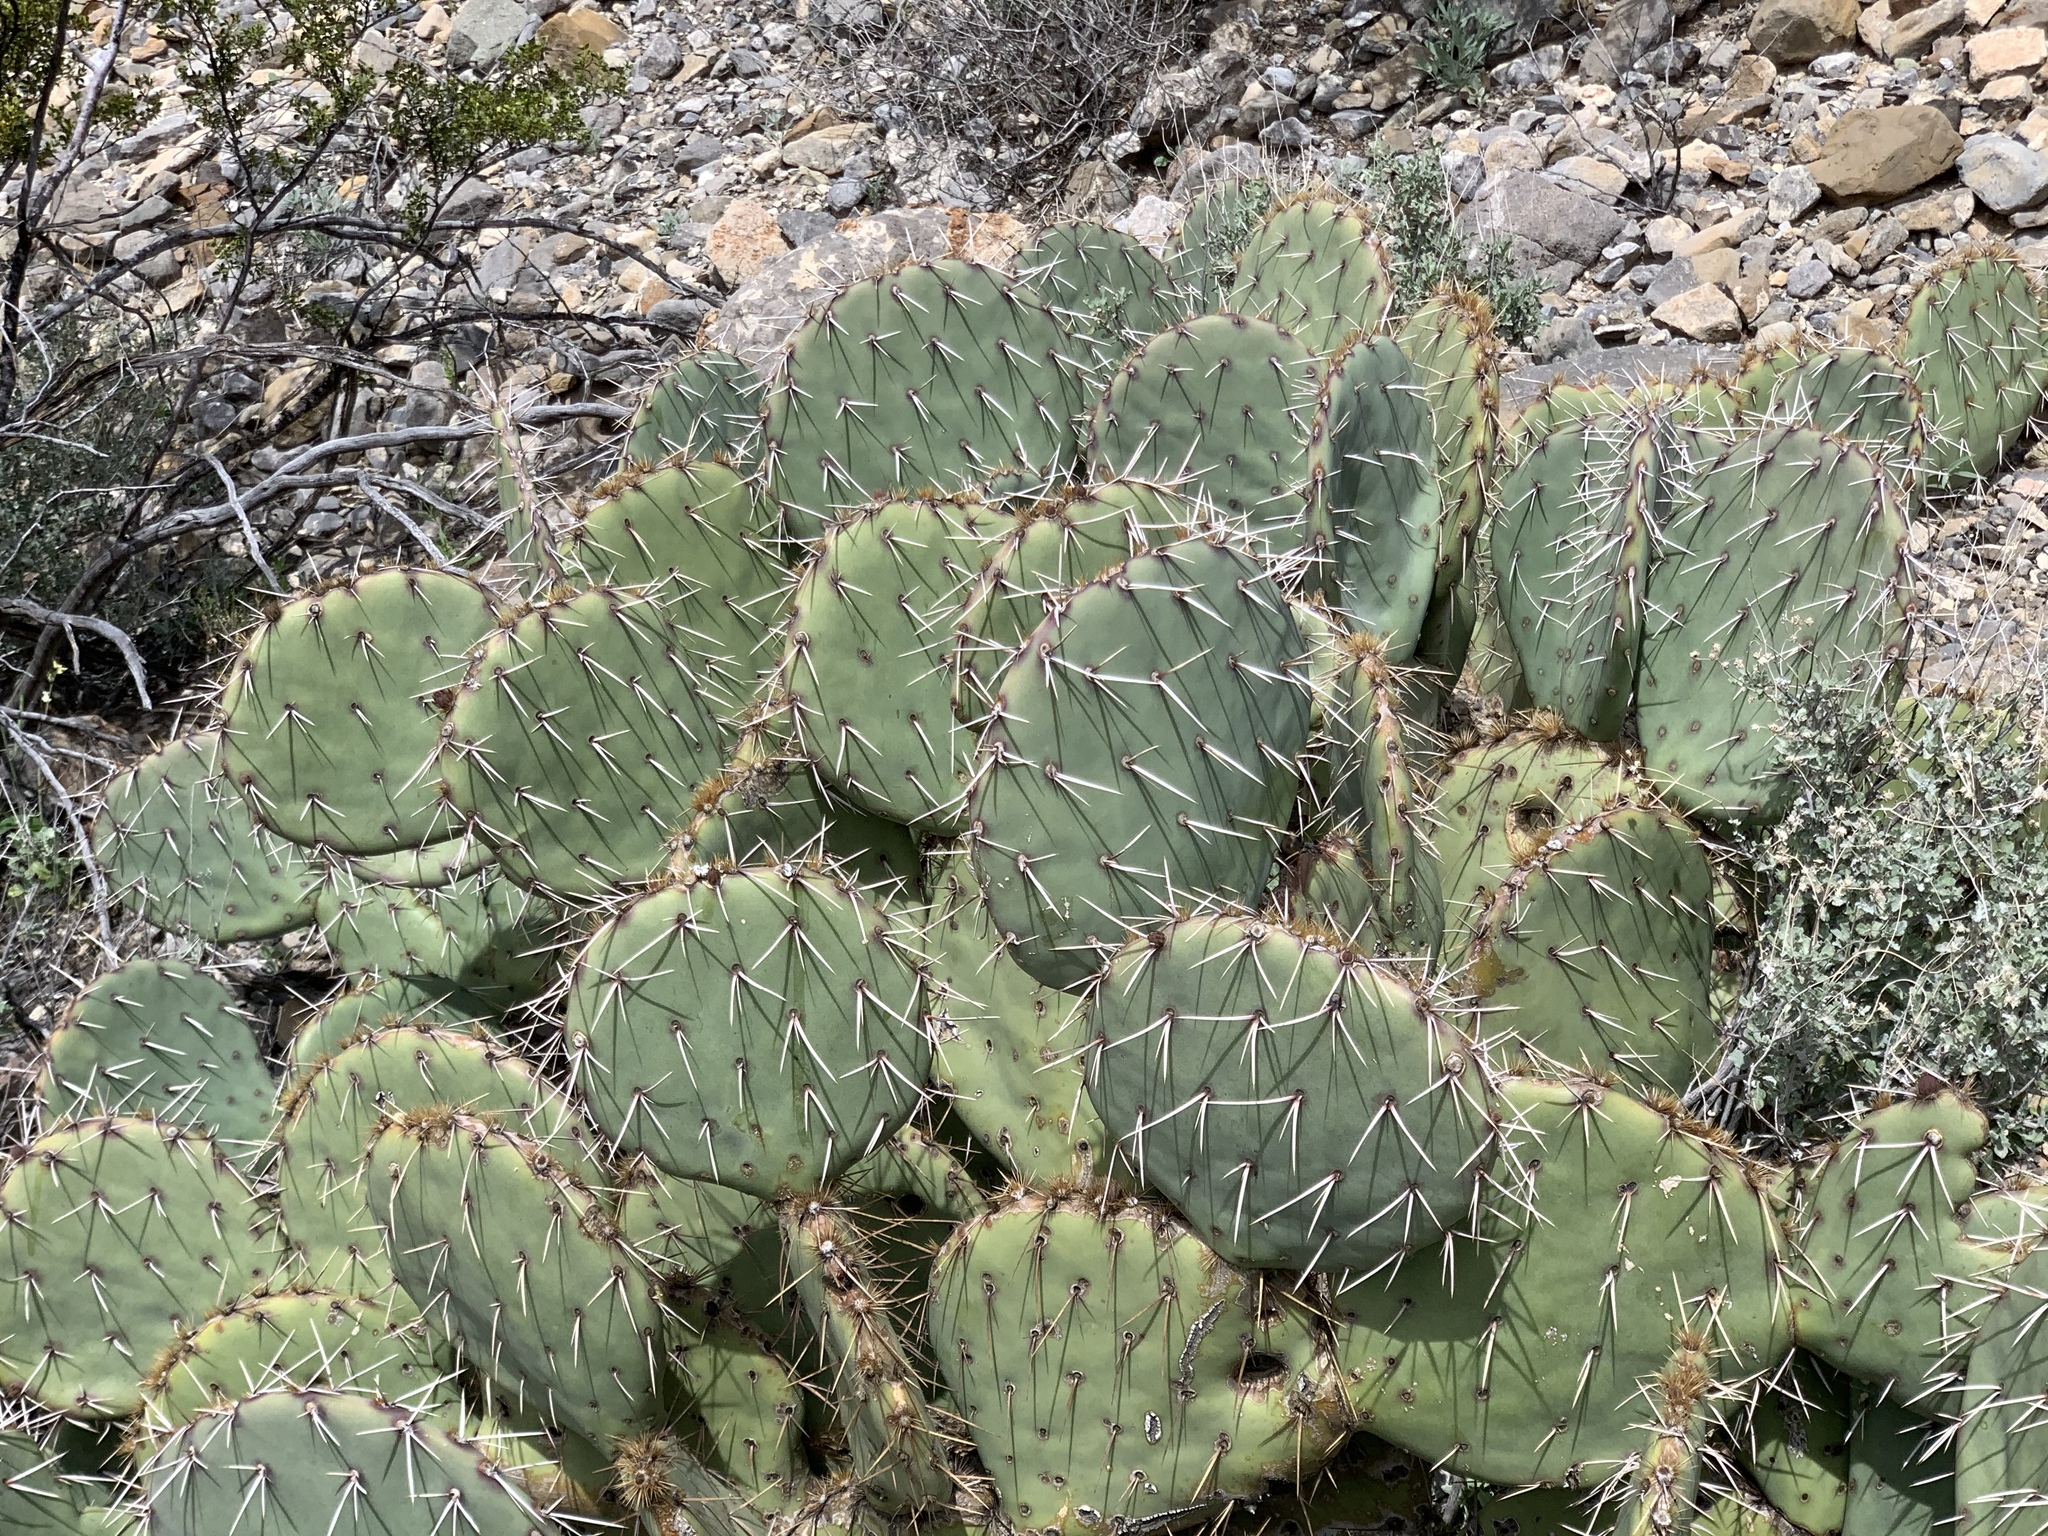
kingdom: Plantae
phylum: Tracheophyta
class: Magnoliopsida
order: Caryophyllales
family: Cactaceae
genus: Opuntia
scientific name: Opuntia engelmannii
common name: Cactus-apple
